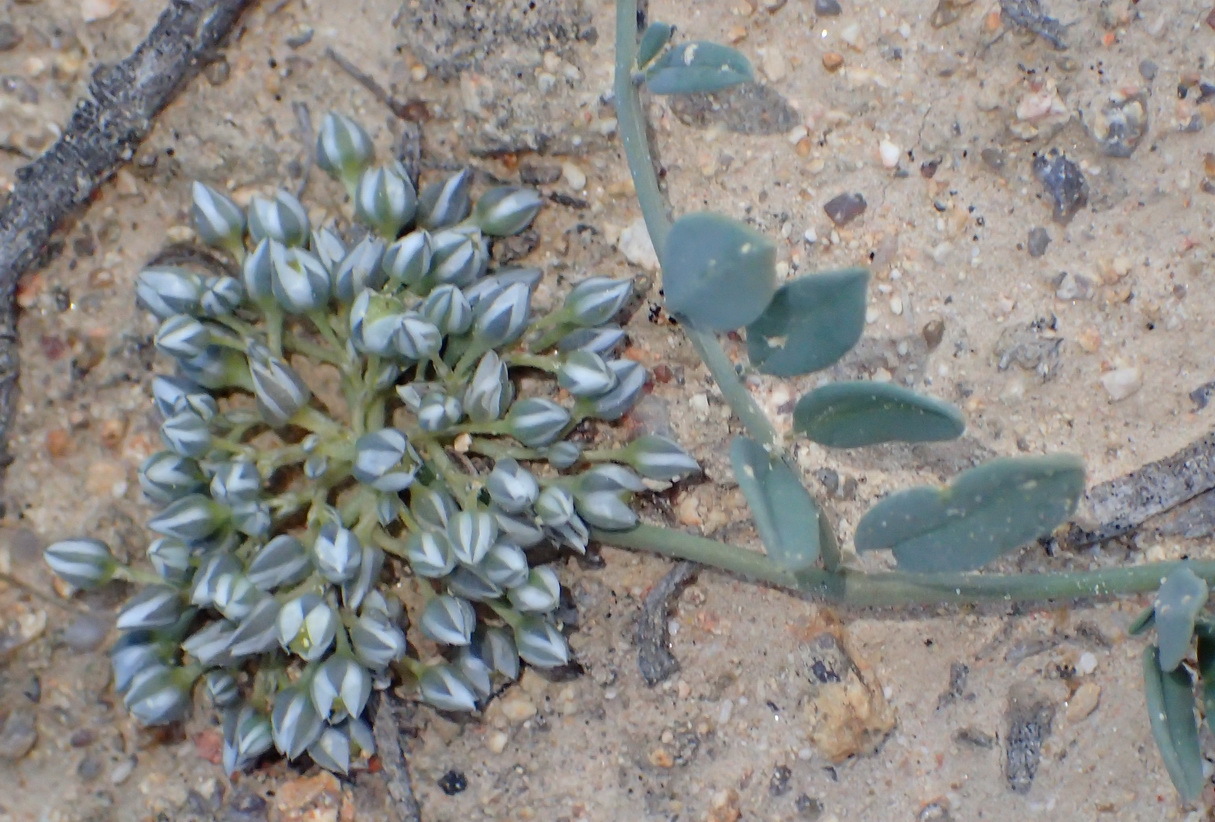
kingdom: Plantae
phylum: Tracheophyta
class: Magnoliopsida
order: Caryophyllales
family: Limeaceae
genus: Limeum
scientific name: Limeum africanum
